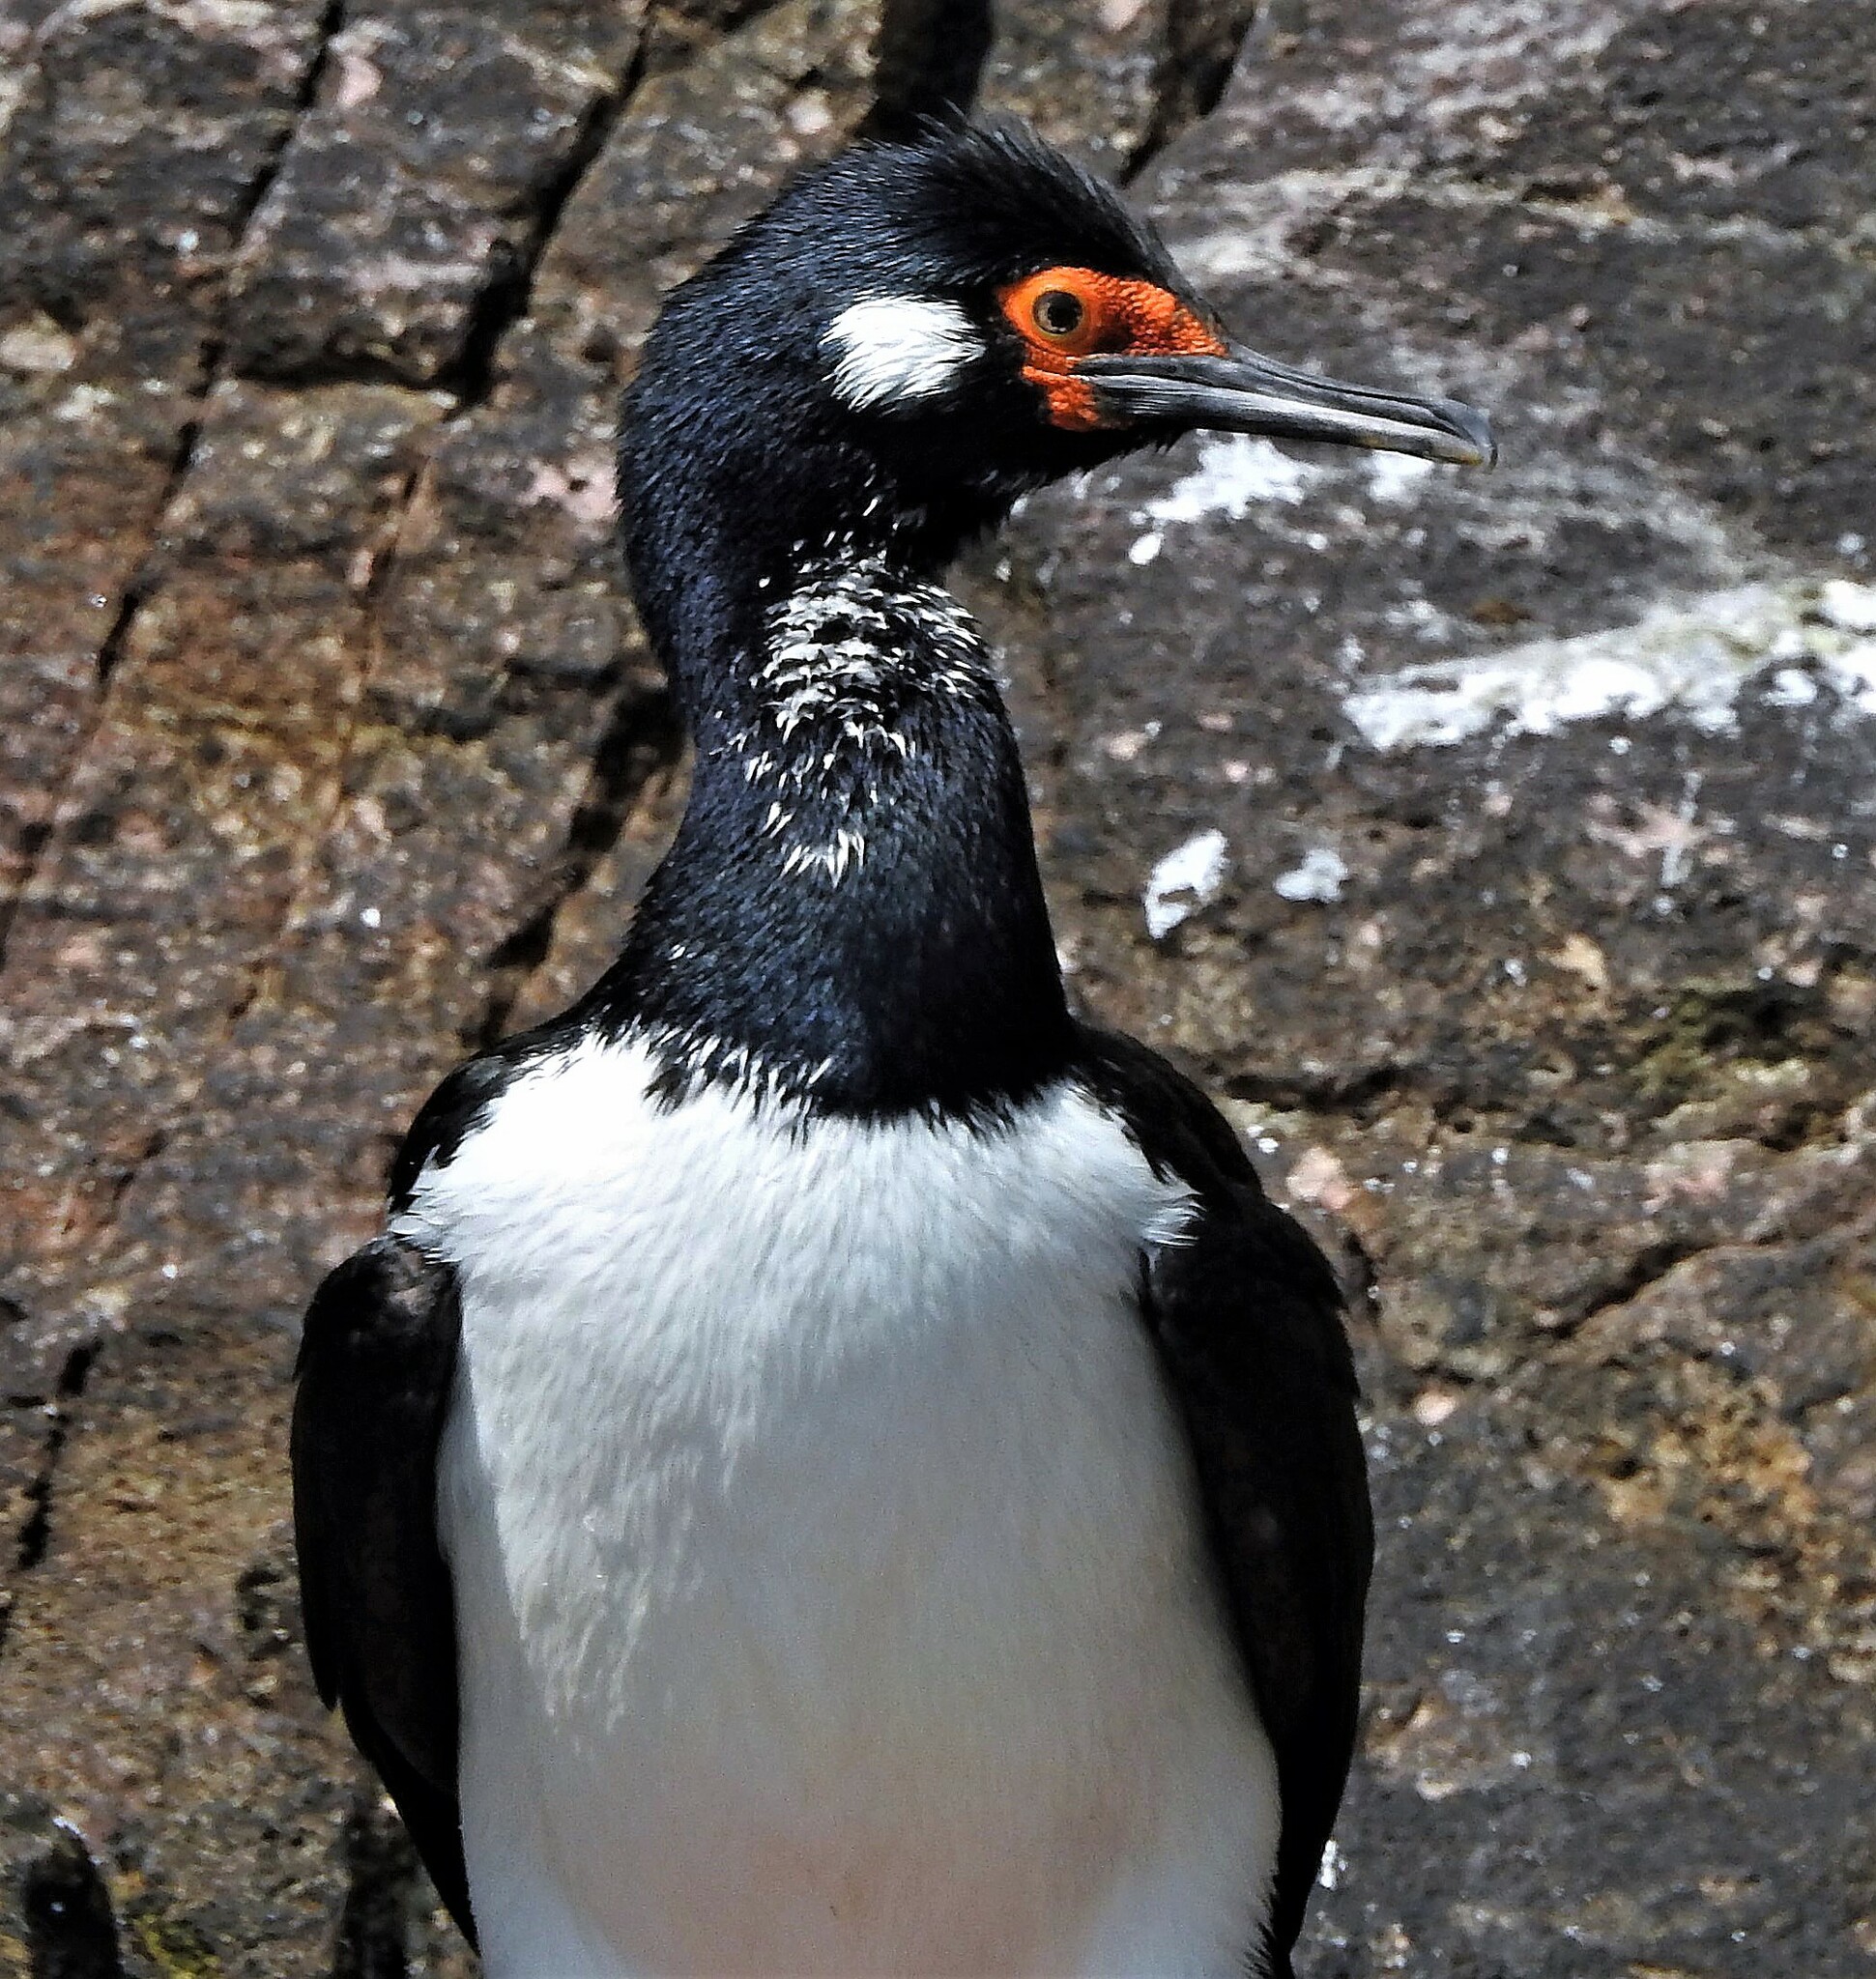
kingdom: Animalia
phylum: Chordata
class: Aves
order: Suliformes
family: Phalacrocoracidae
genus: Phalacrocorax
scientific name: Phalacrocorax magellanicus
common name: Rock shag
